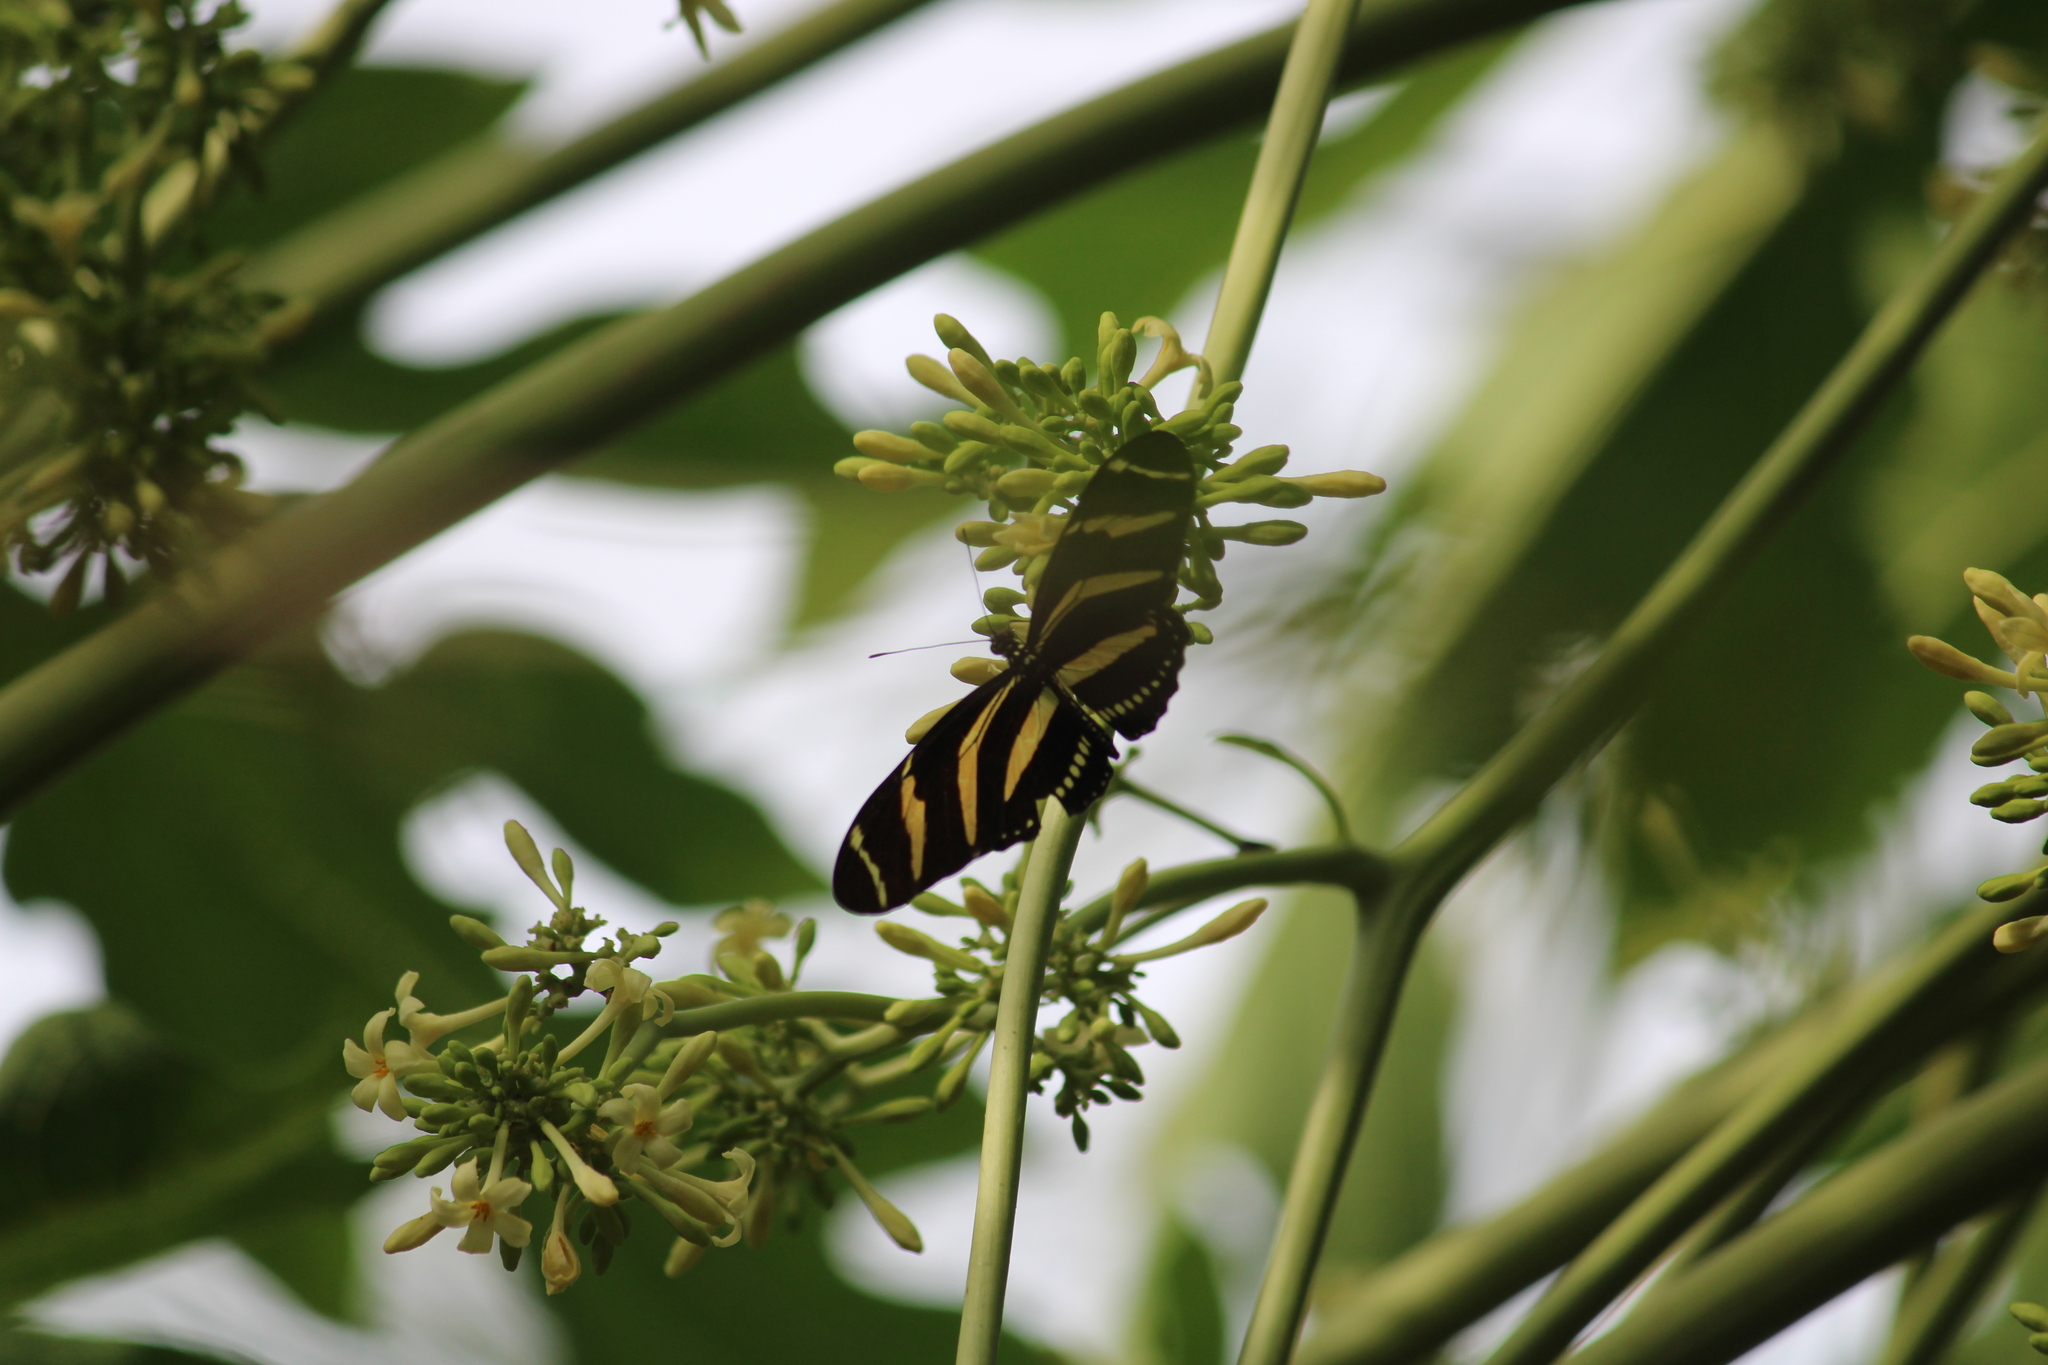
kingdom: Animalia
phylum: Arthropoda
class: Insecta
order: Lepidoptera
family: Nymphalidae
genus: Heliconius
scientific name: Heliconius charithonia
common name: Zebra long wing
